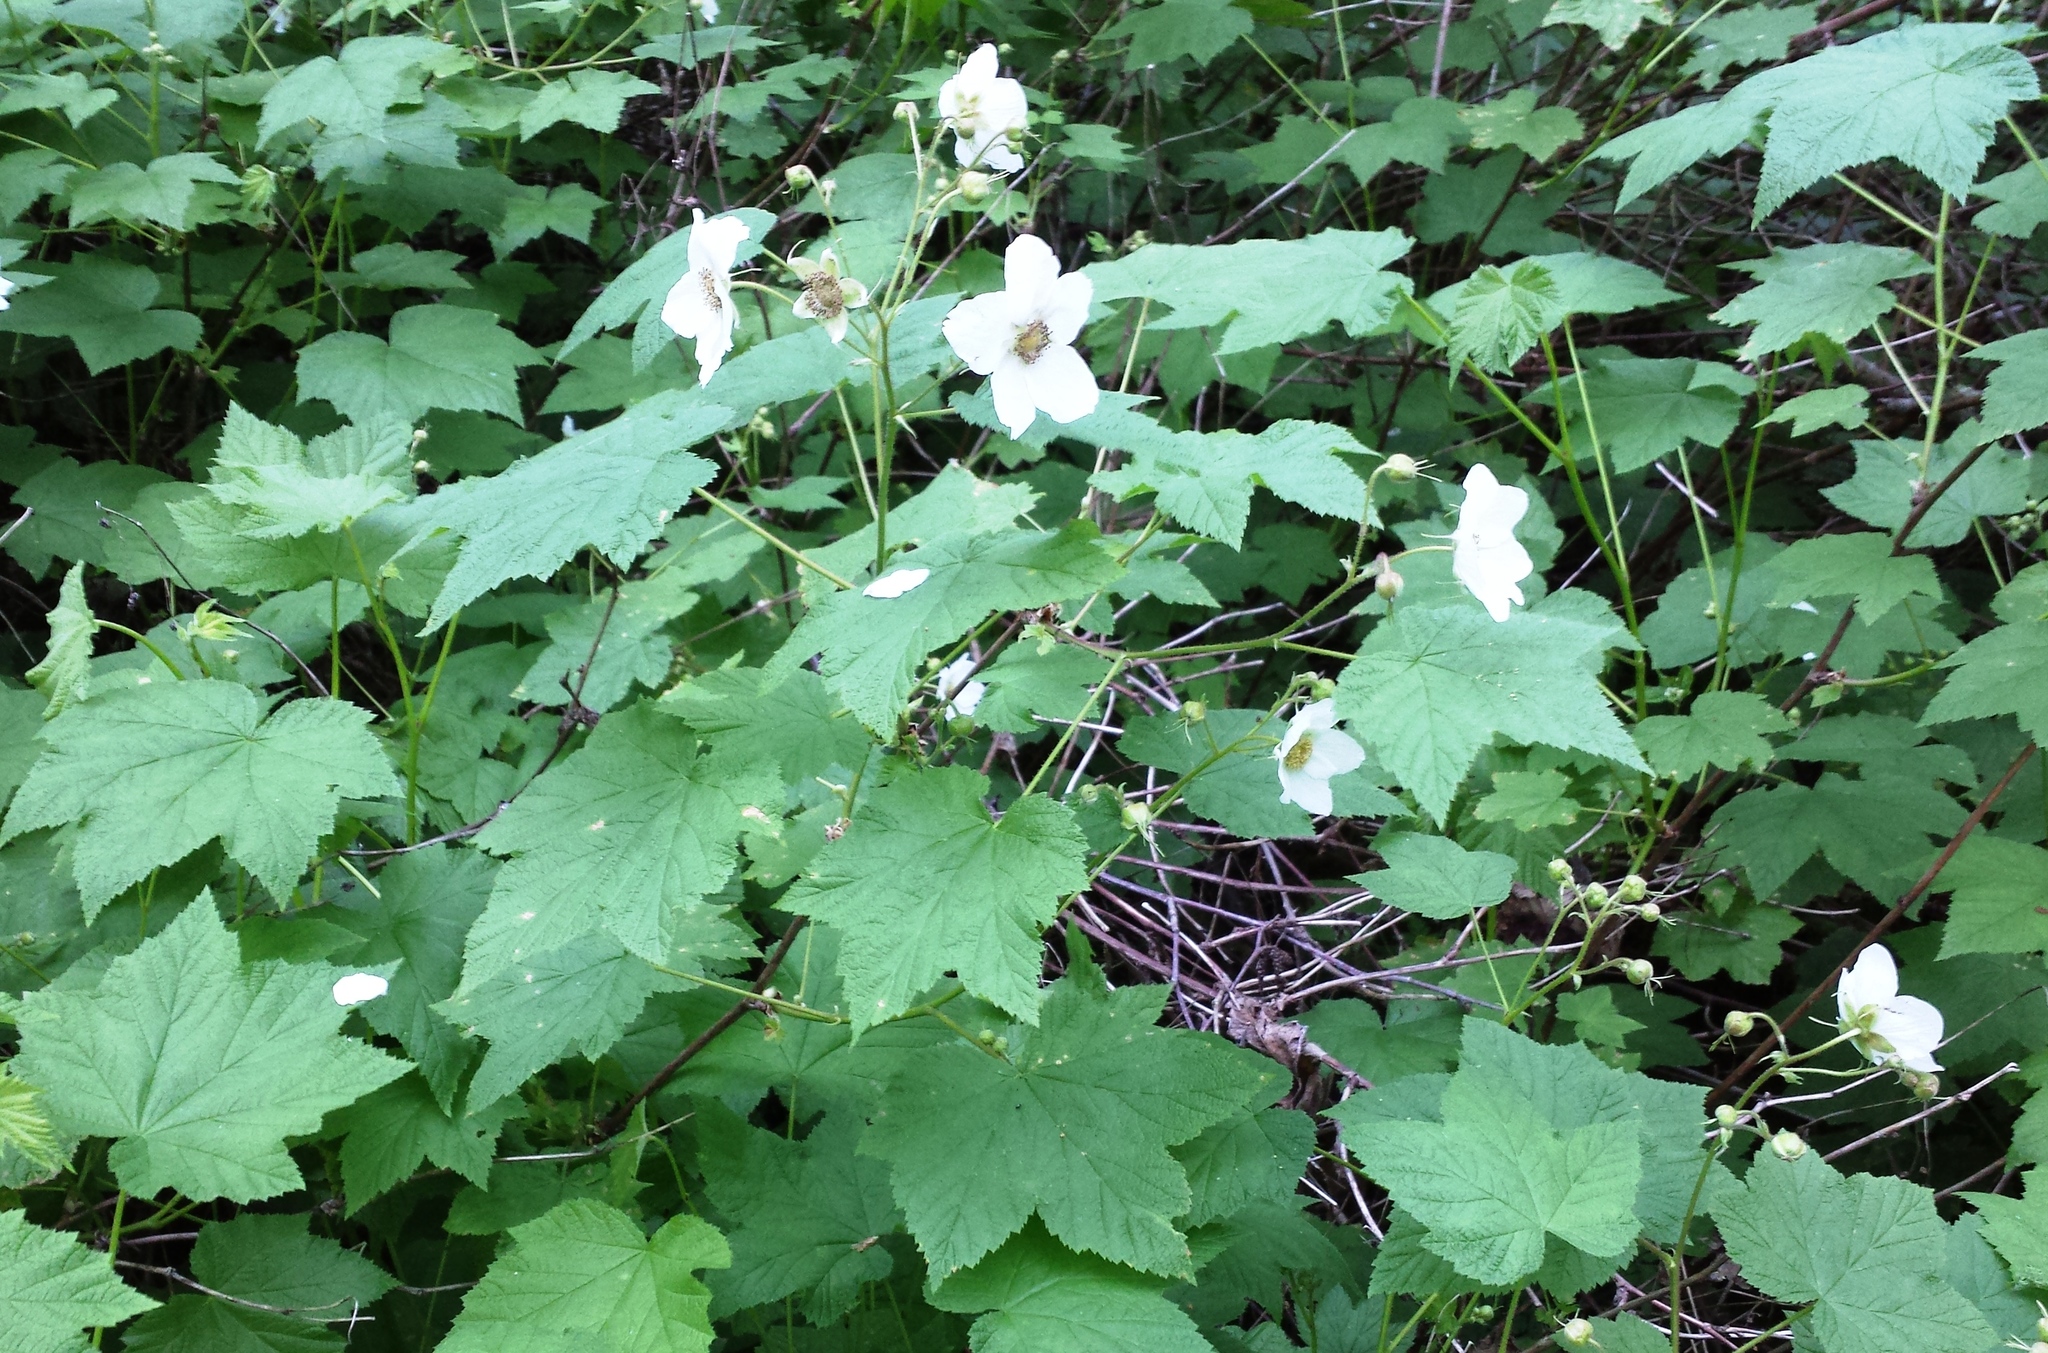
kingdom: Plantae
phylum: Tracheophyta
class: Magnoliopsida
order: Rosales
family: Rosaceae
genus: Rubus
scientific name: Rubus parviflorus
